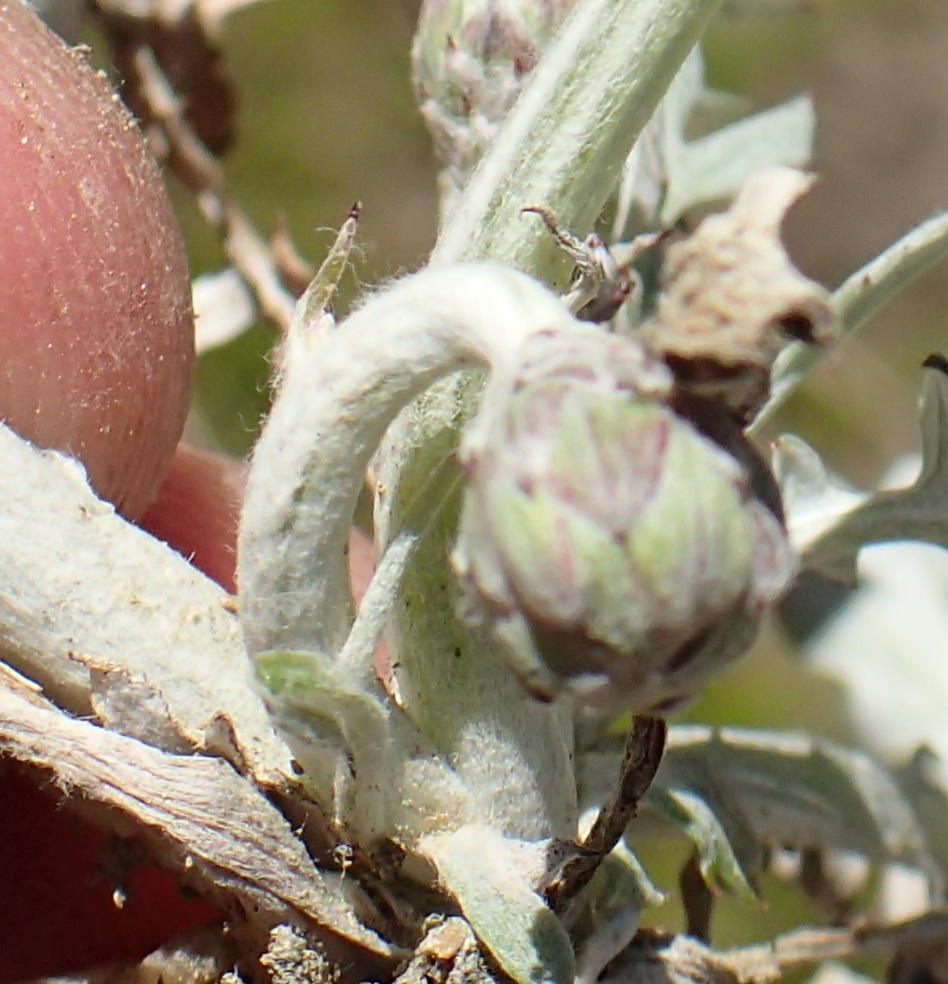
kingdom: Plantae
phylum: Tracheophyta
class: Magnoliopsida
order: Asterales
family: Asteraceae
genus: Arctotheca
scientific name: Arctotheca prostrata
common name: Capeweed
